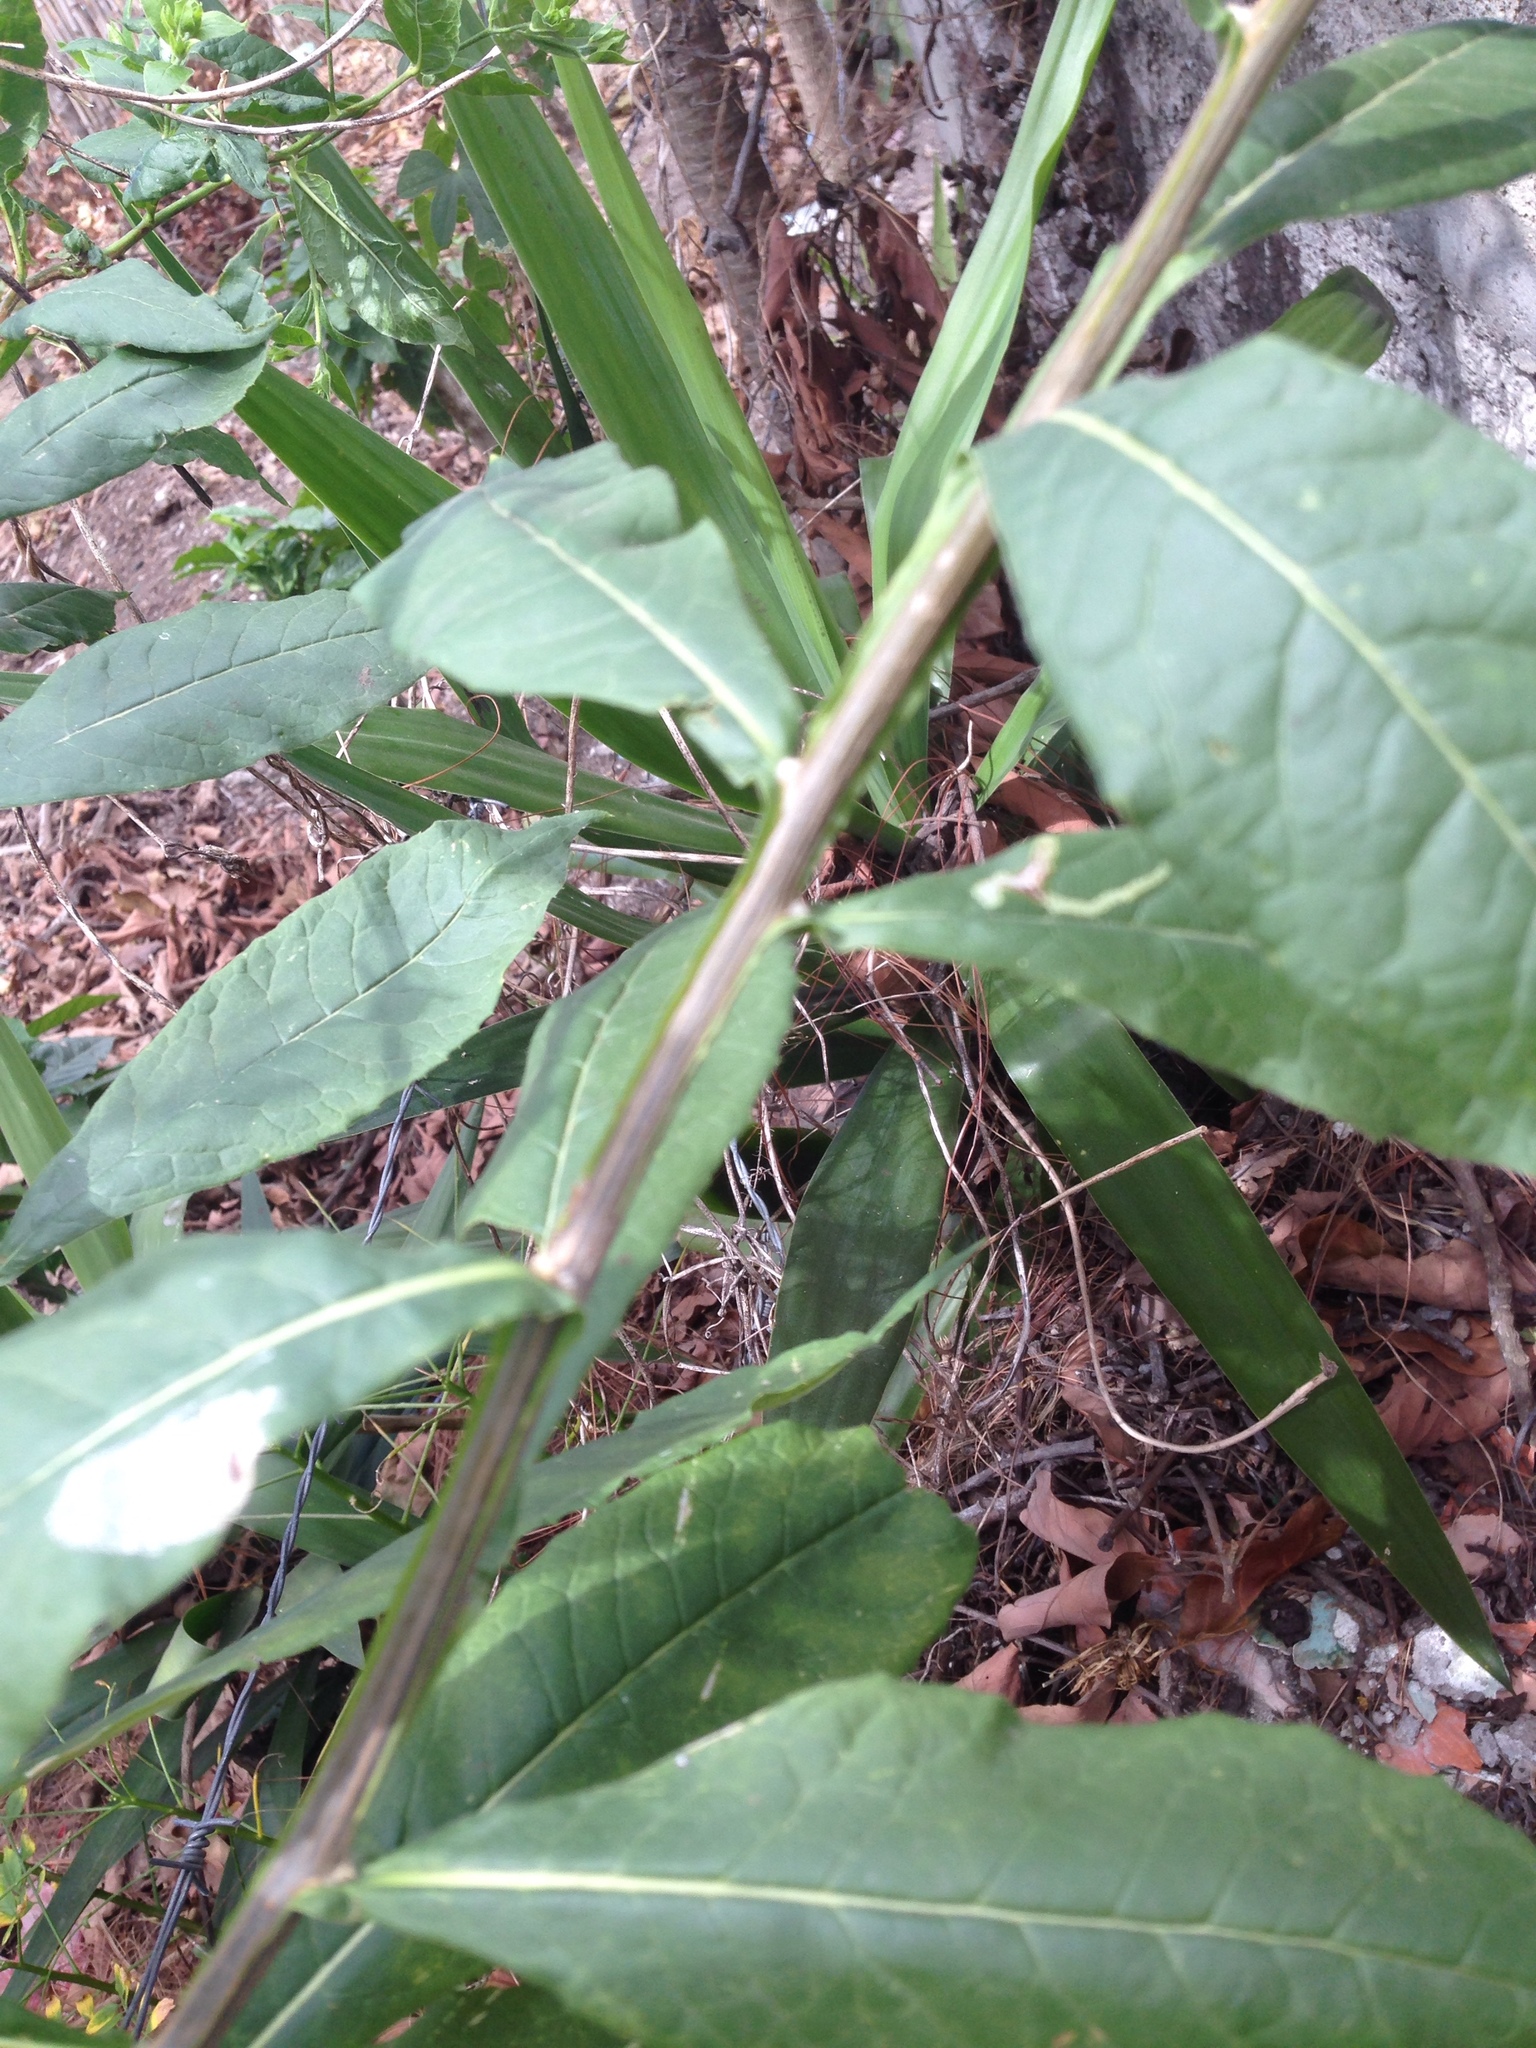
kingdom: Plantae
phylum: Tracheophyta
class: Magnoliopsida
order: Asterales
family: Asteraceae
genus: Trixis
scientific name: Trixis inula
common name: Tropical threefold
